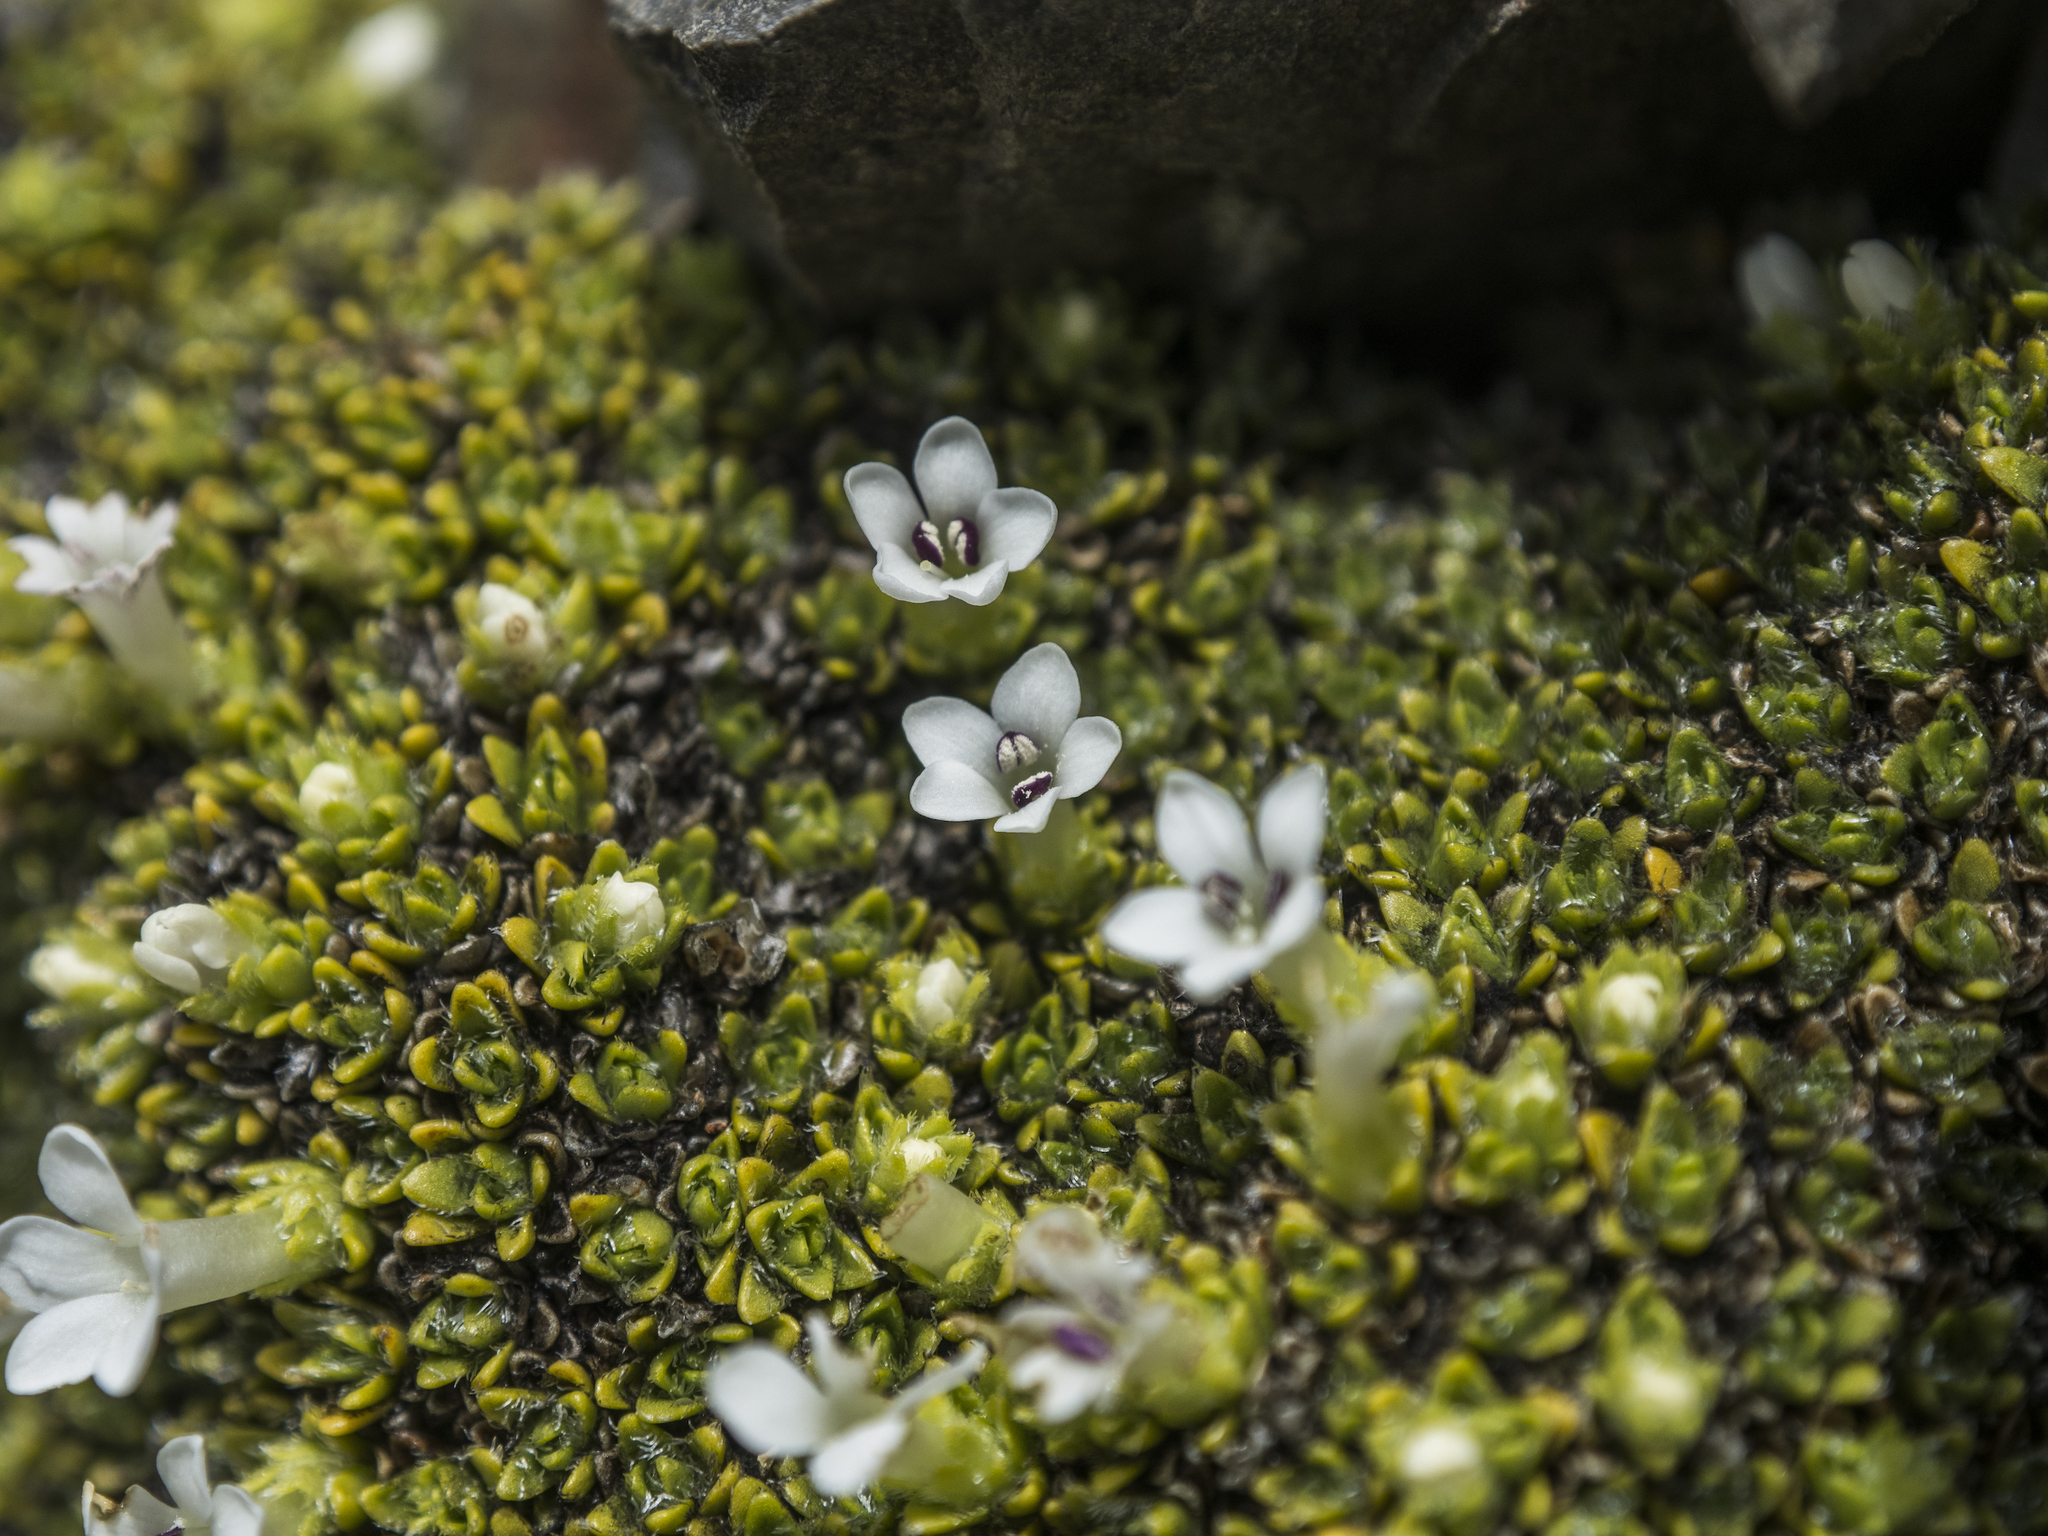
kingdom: Plantae
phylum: Tracheophyta
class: Magnoliopsida
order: Lamiales
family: Plantaginaceae
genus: Veronica
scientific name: Veronica ciliolata
